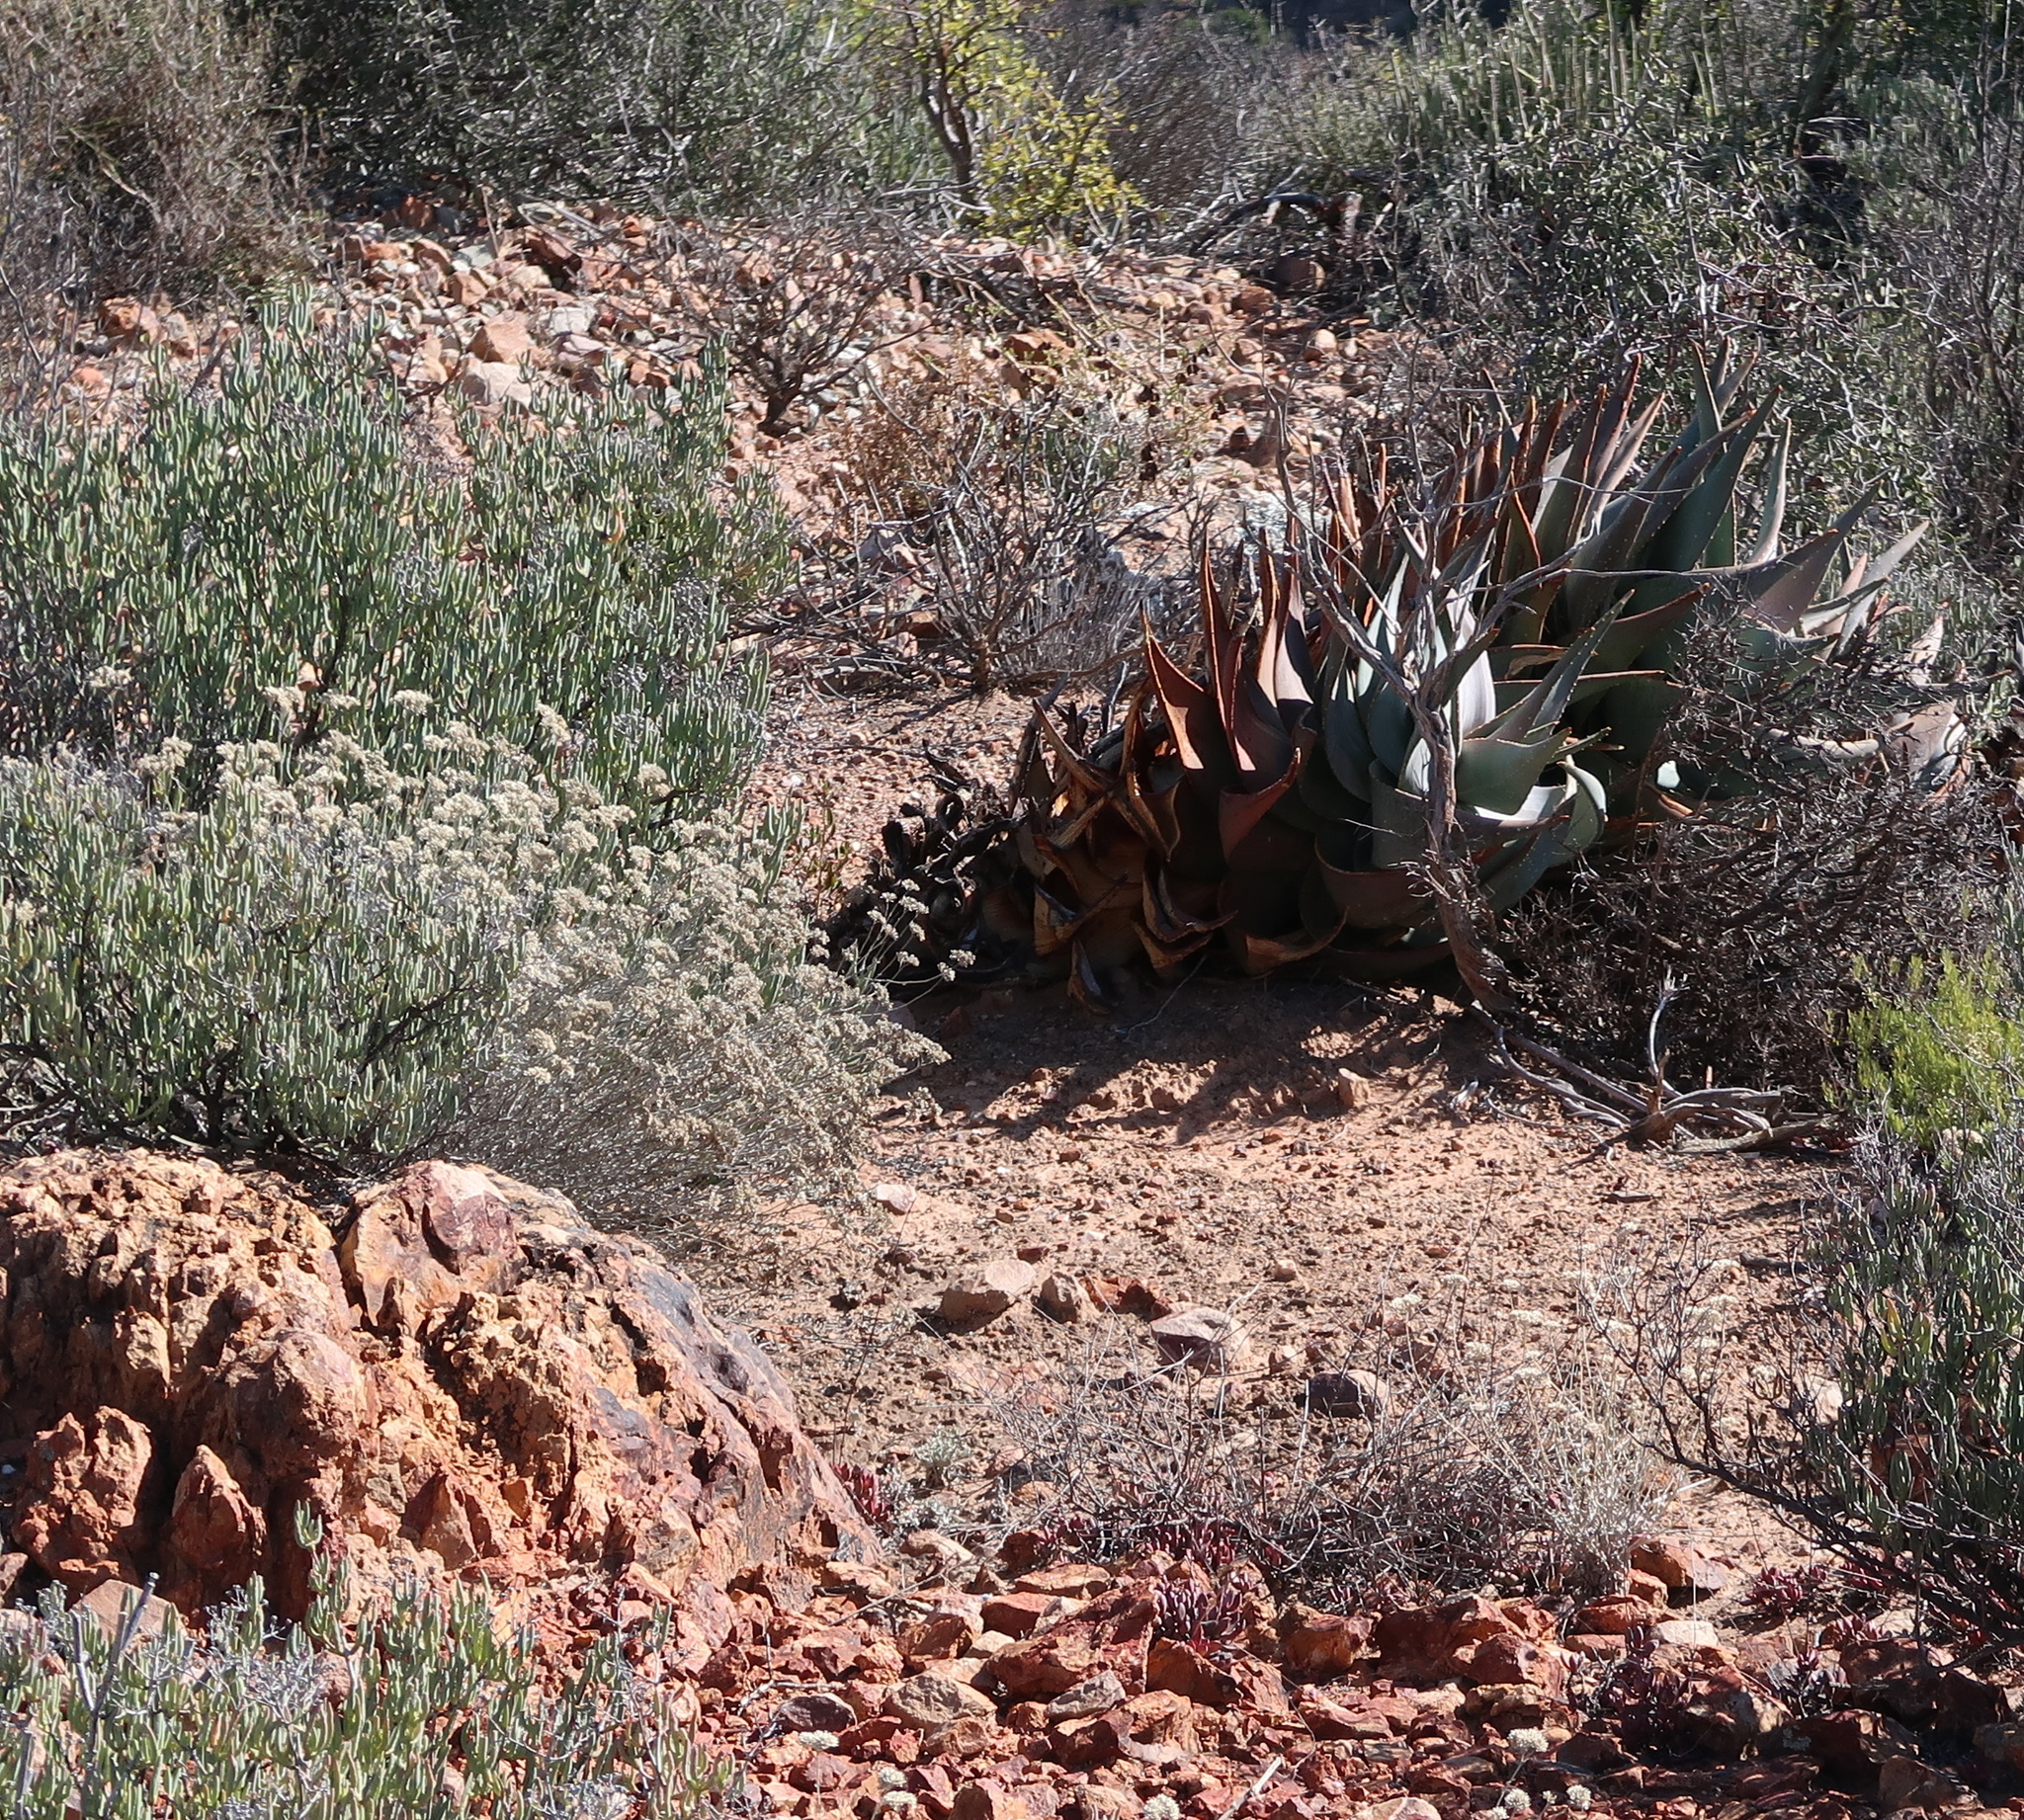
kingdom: Plantae
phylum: Tracheophyta
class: Liliopsida
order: Asparagales
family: Asphodelaceae
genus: Aloe
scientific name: Aloe comptonii
